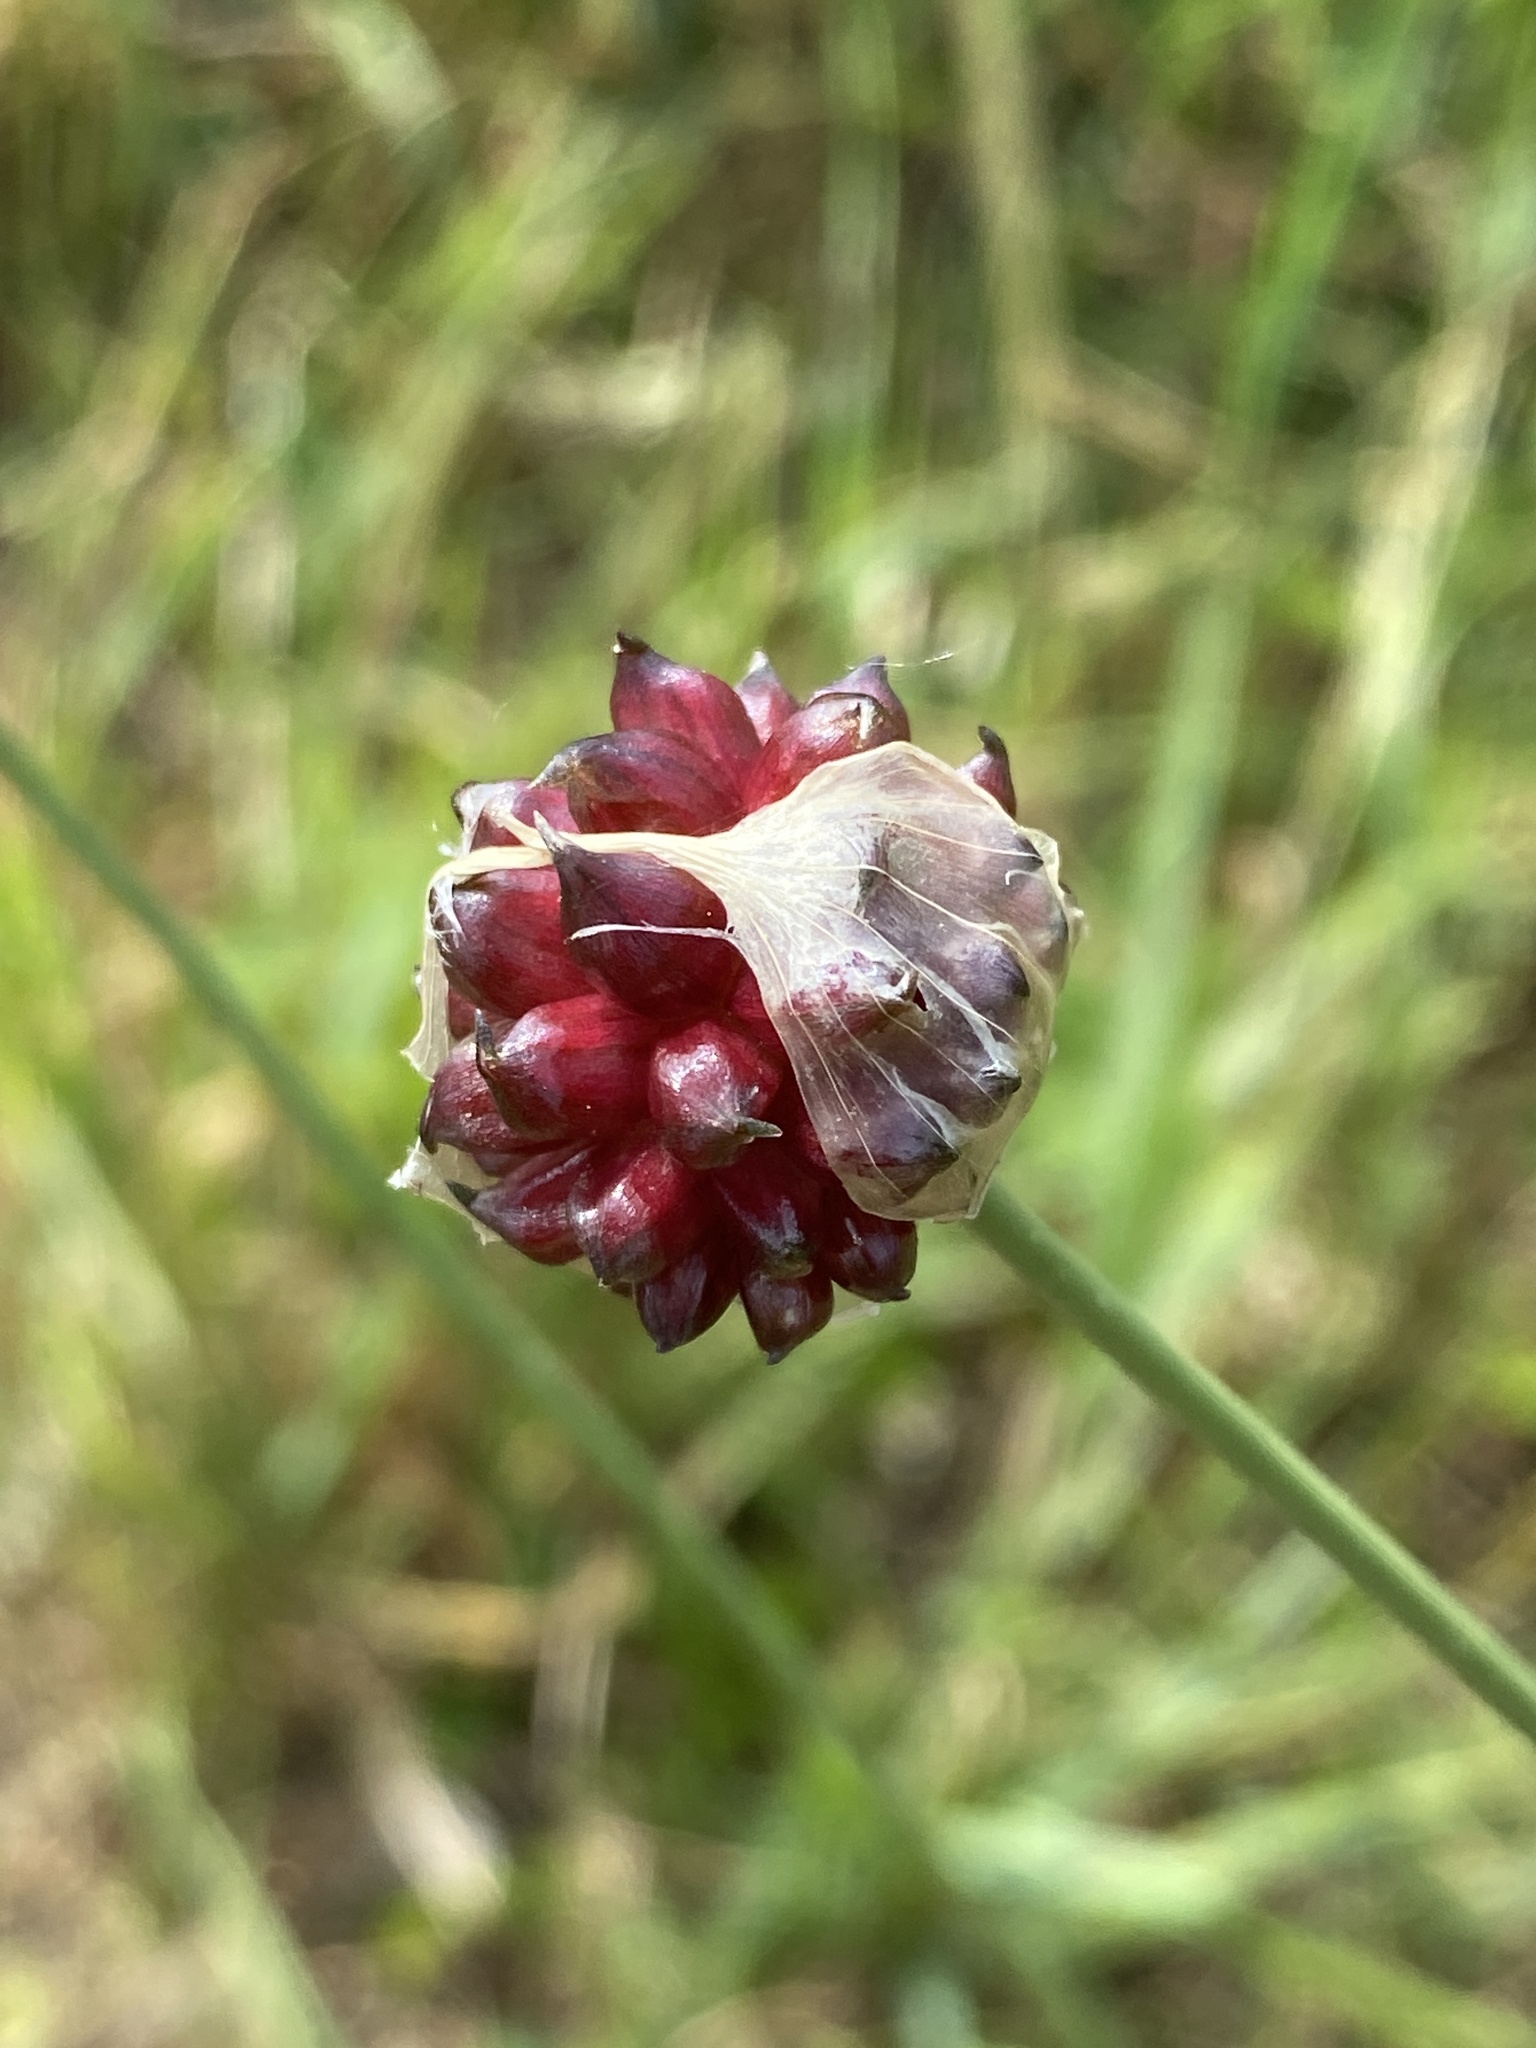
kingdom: Plantae
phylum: Tracheophyta
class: Liliopsida
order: Asparagales
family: Amaryllidaceae
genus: Allium
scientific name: Allium vineale
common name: Crow garlic
